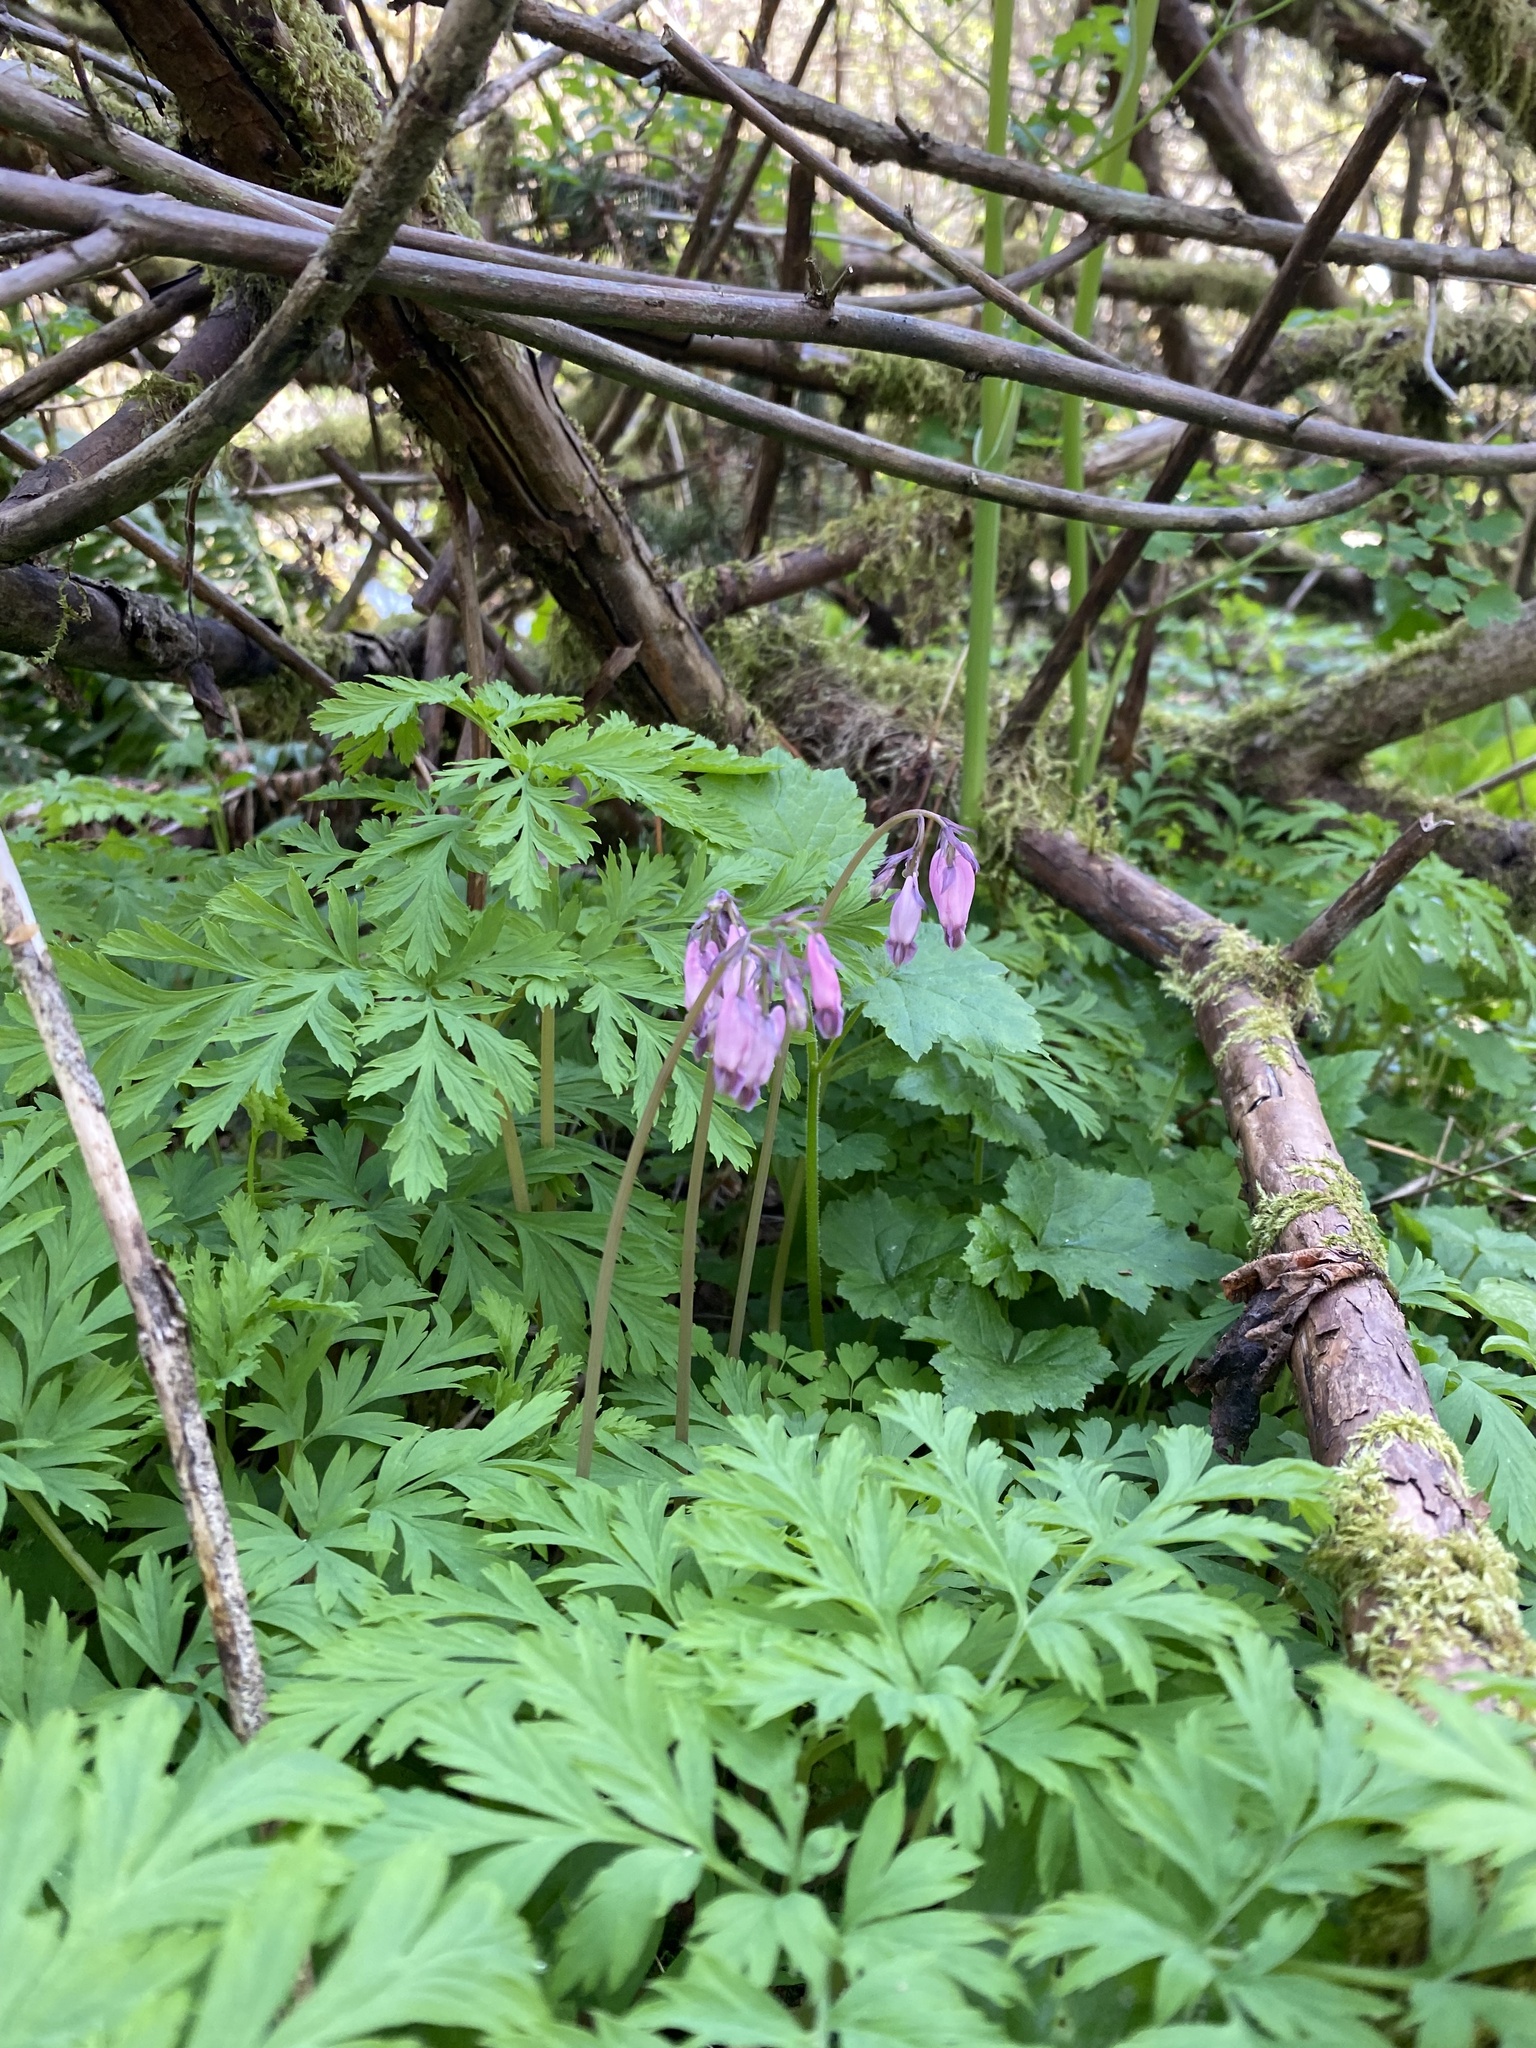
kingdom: Plantae
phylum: Tracheophyta
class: Magnoliopsida
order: Ranunculales
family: Papaveraceae
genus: Dicentra
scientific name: Dicentra formosa
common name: Bleeding-heart
